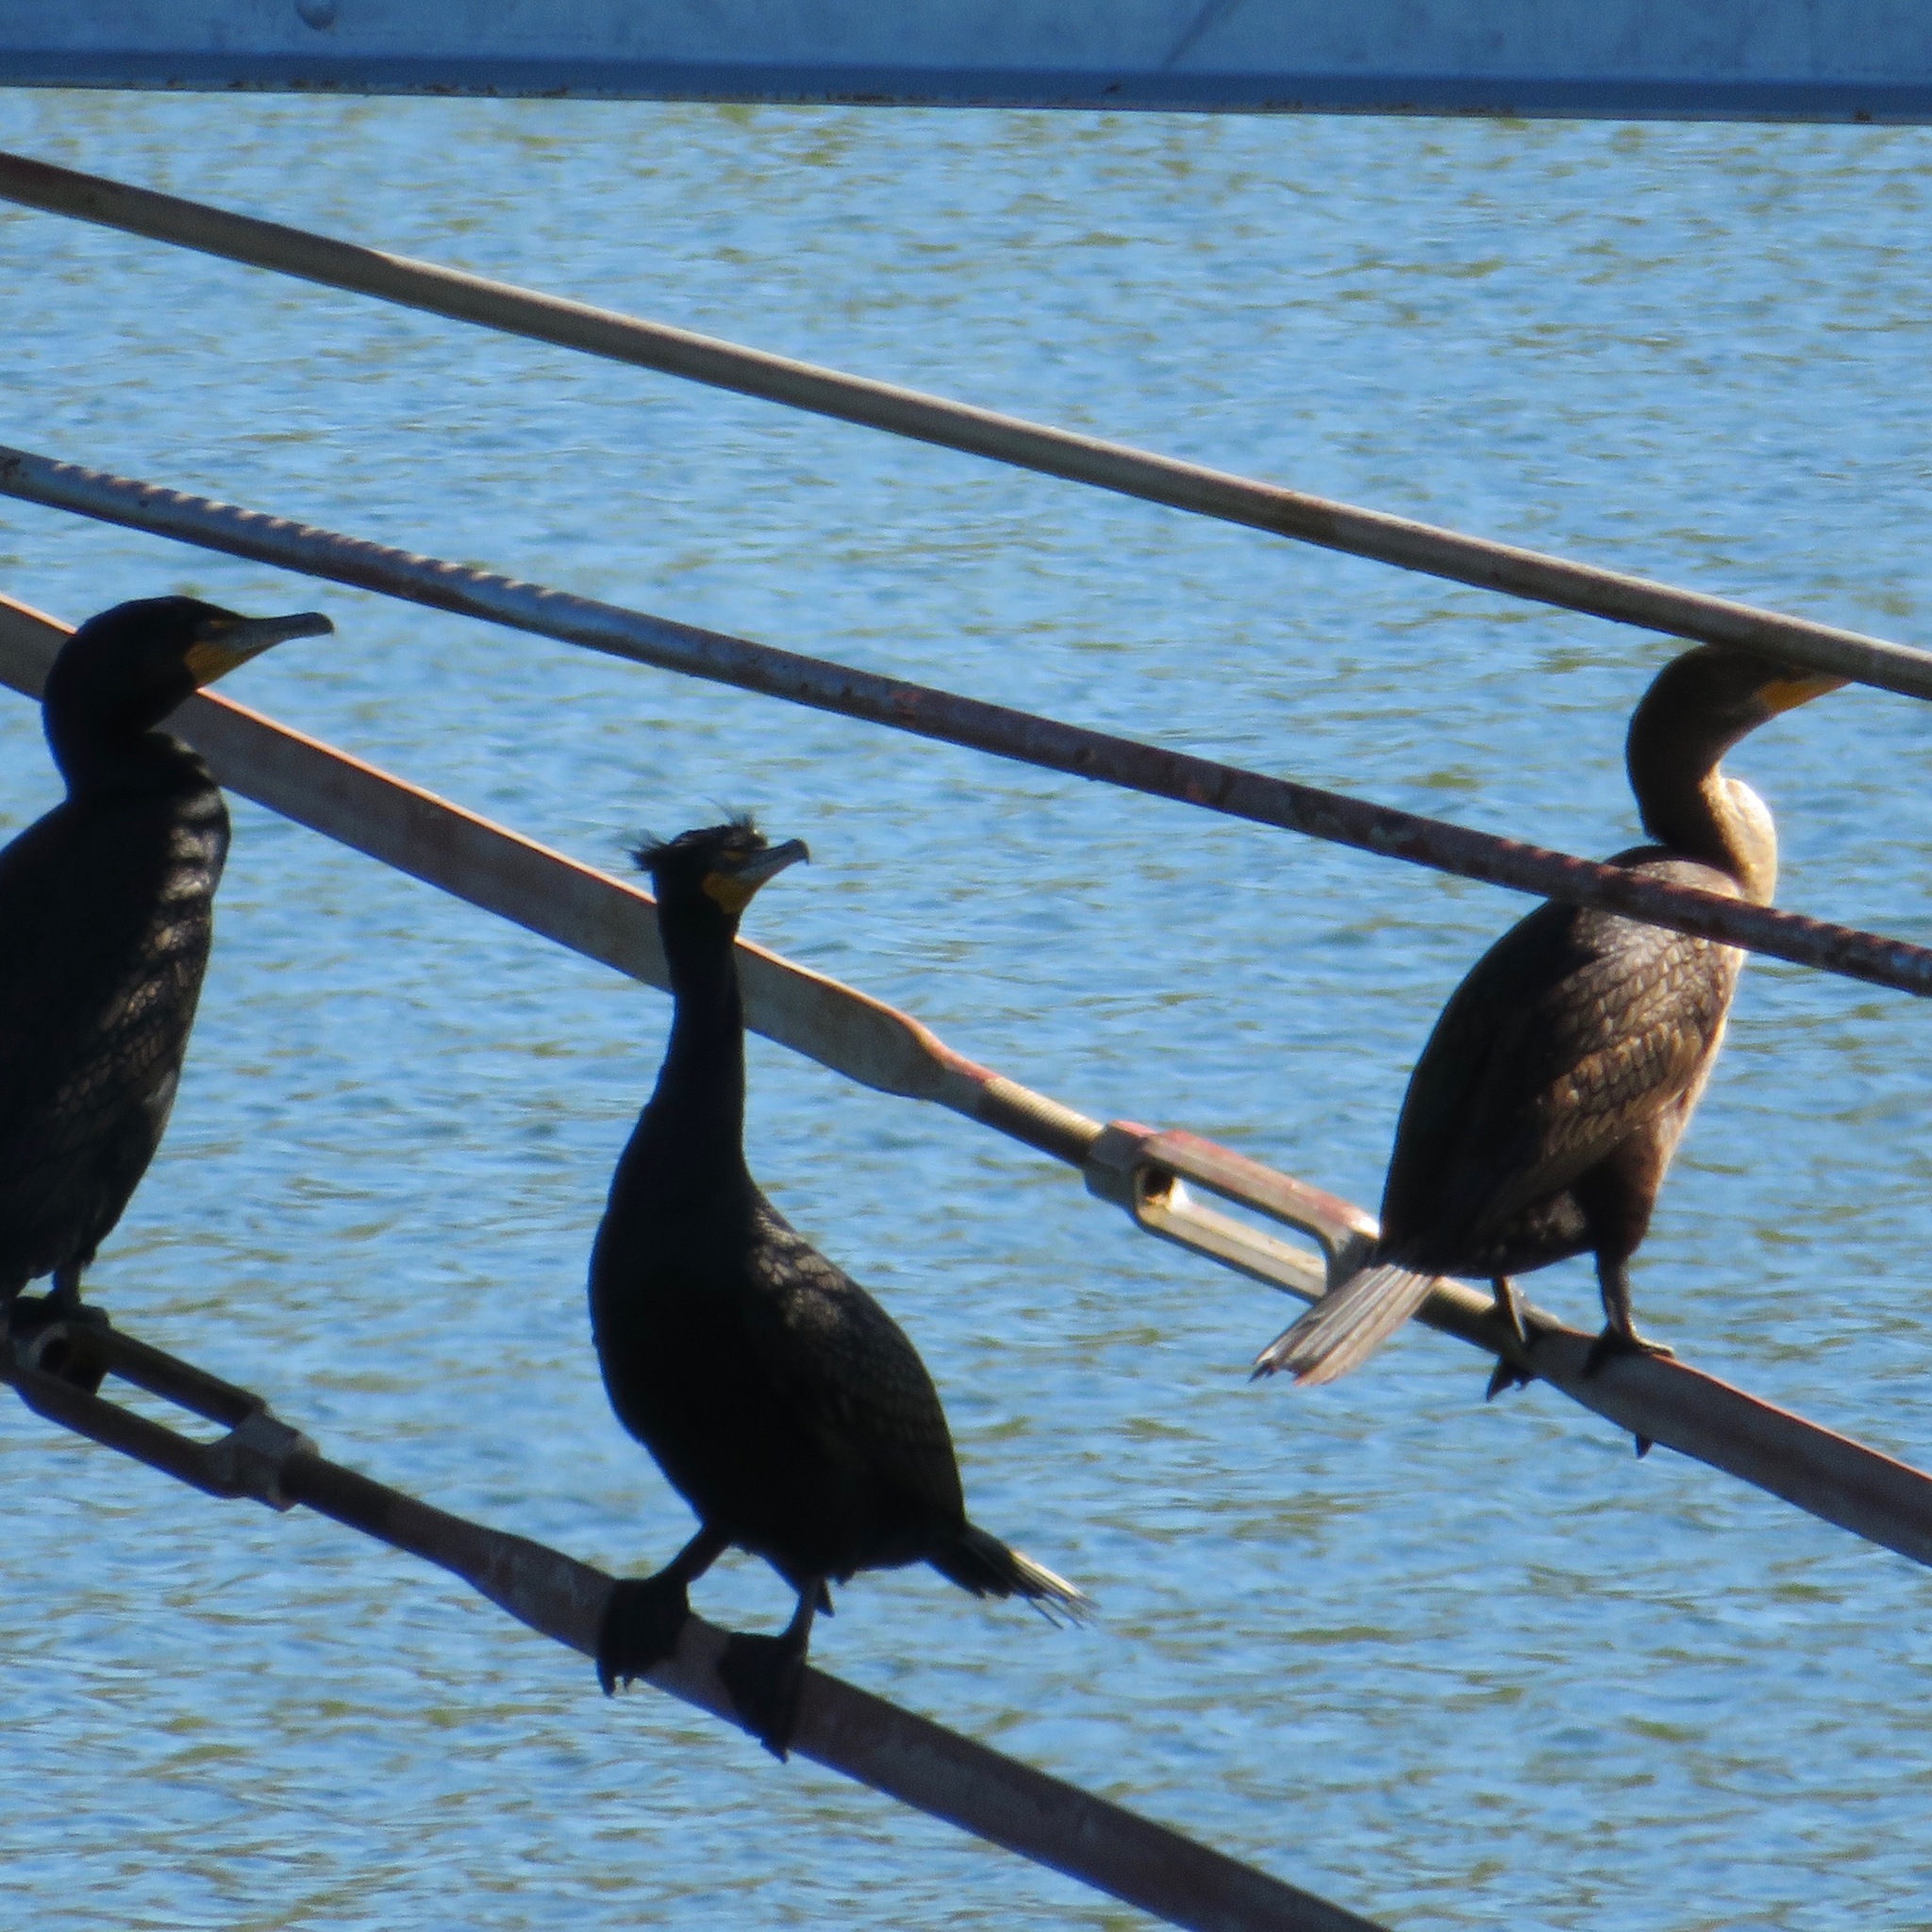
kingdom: Animalia
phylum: Chordata
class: Aves
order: Suliformes
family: Phalacrocoracidae
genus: Phalacrocorax
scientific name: Phalacrocorax auritus
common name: Double-crested cormorant
